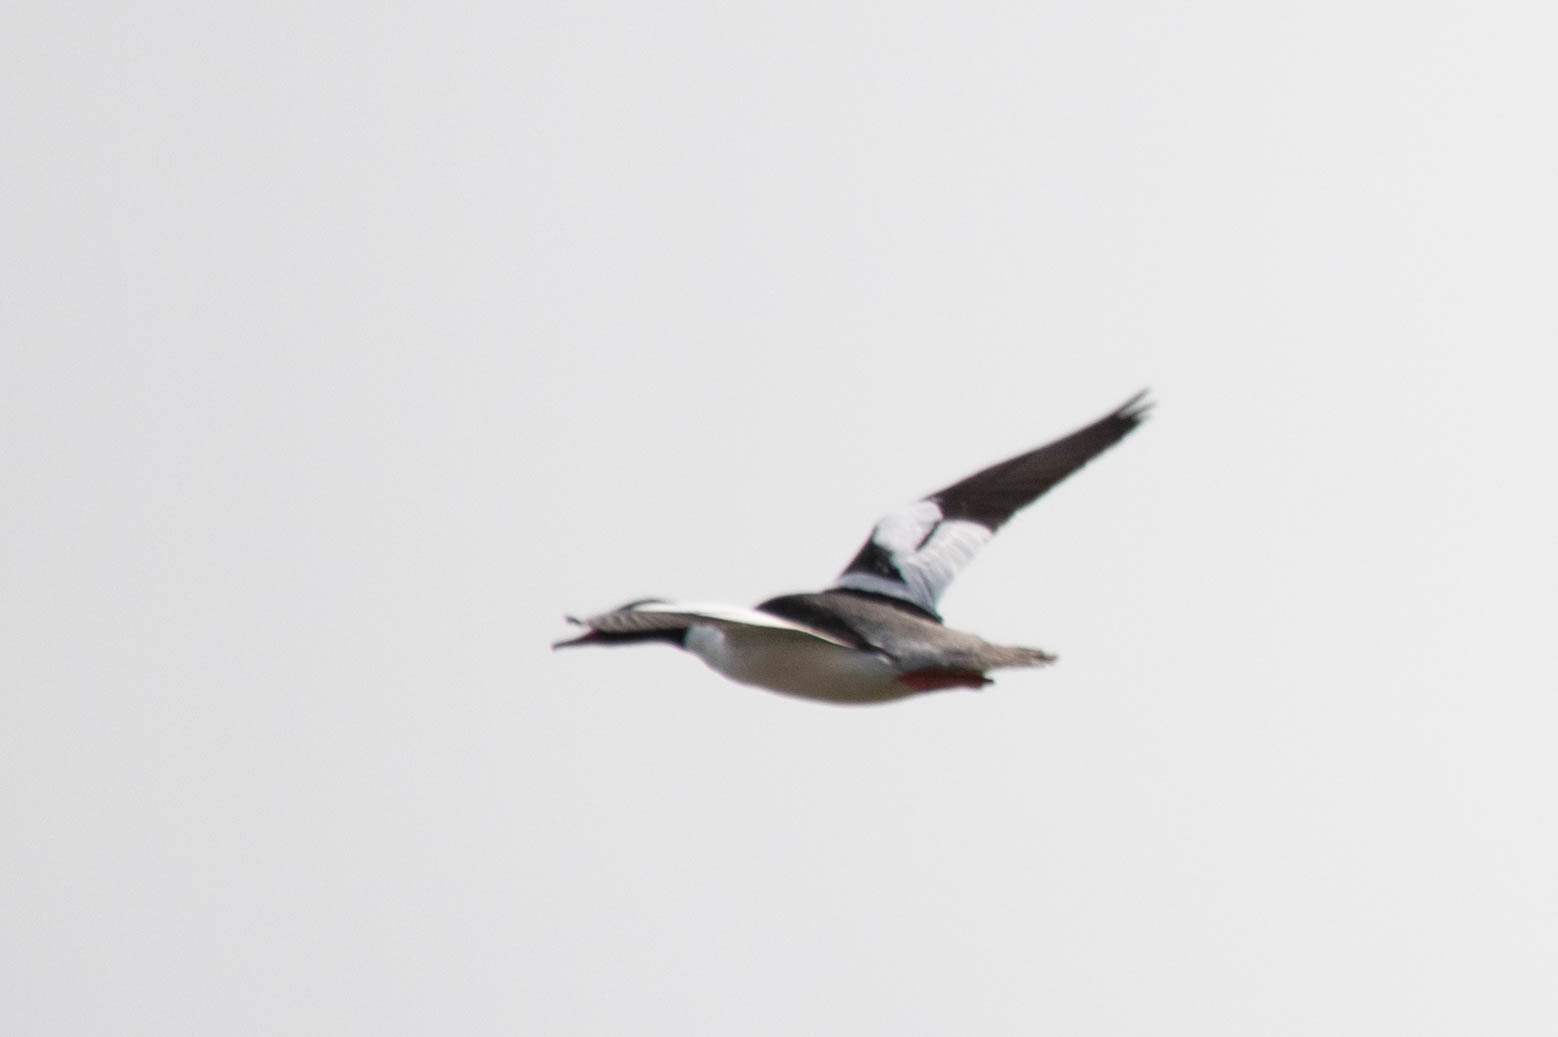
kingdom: Animalia
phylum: Chordata
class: Aves
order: Anseriformes
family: Anatidae
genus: Mergus
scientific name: Mergus merganser
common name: Common merganser
